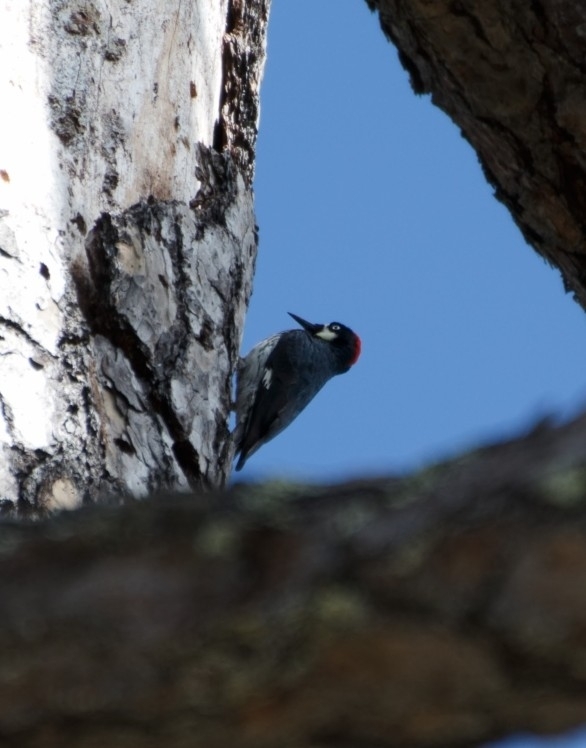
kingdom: Animalia
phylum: Chordata
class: Aves
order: Piciformes
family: Picidae
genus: Melanerpes
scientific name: Melanerpes formicivorus
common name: Acorn woodpecker
